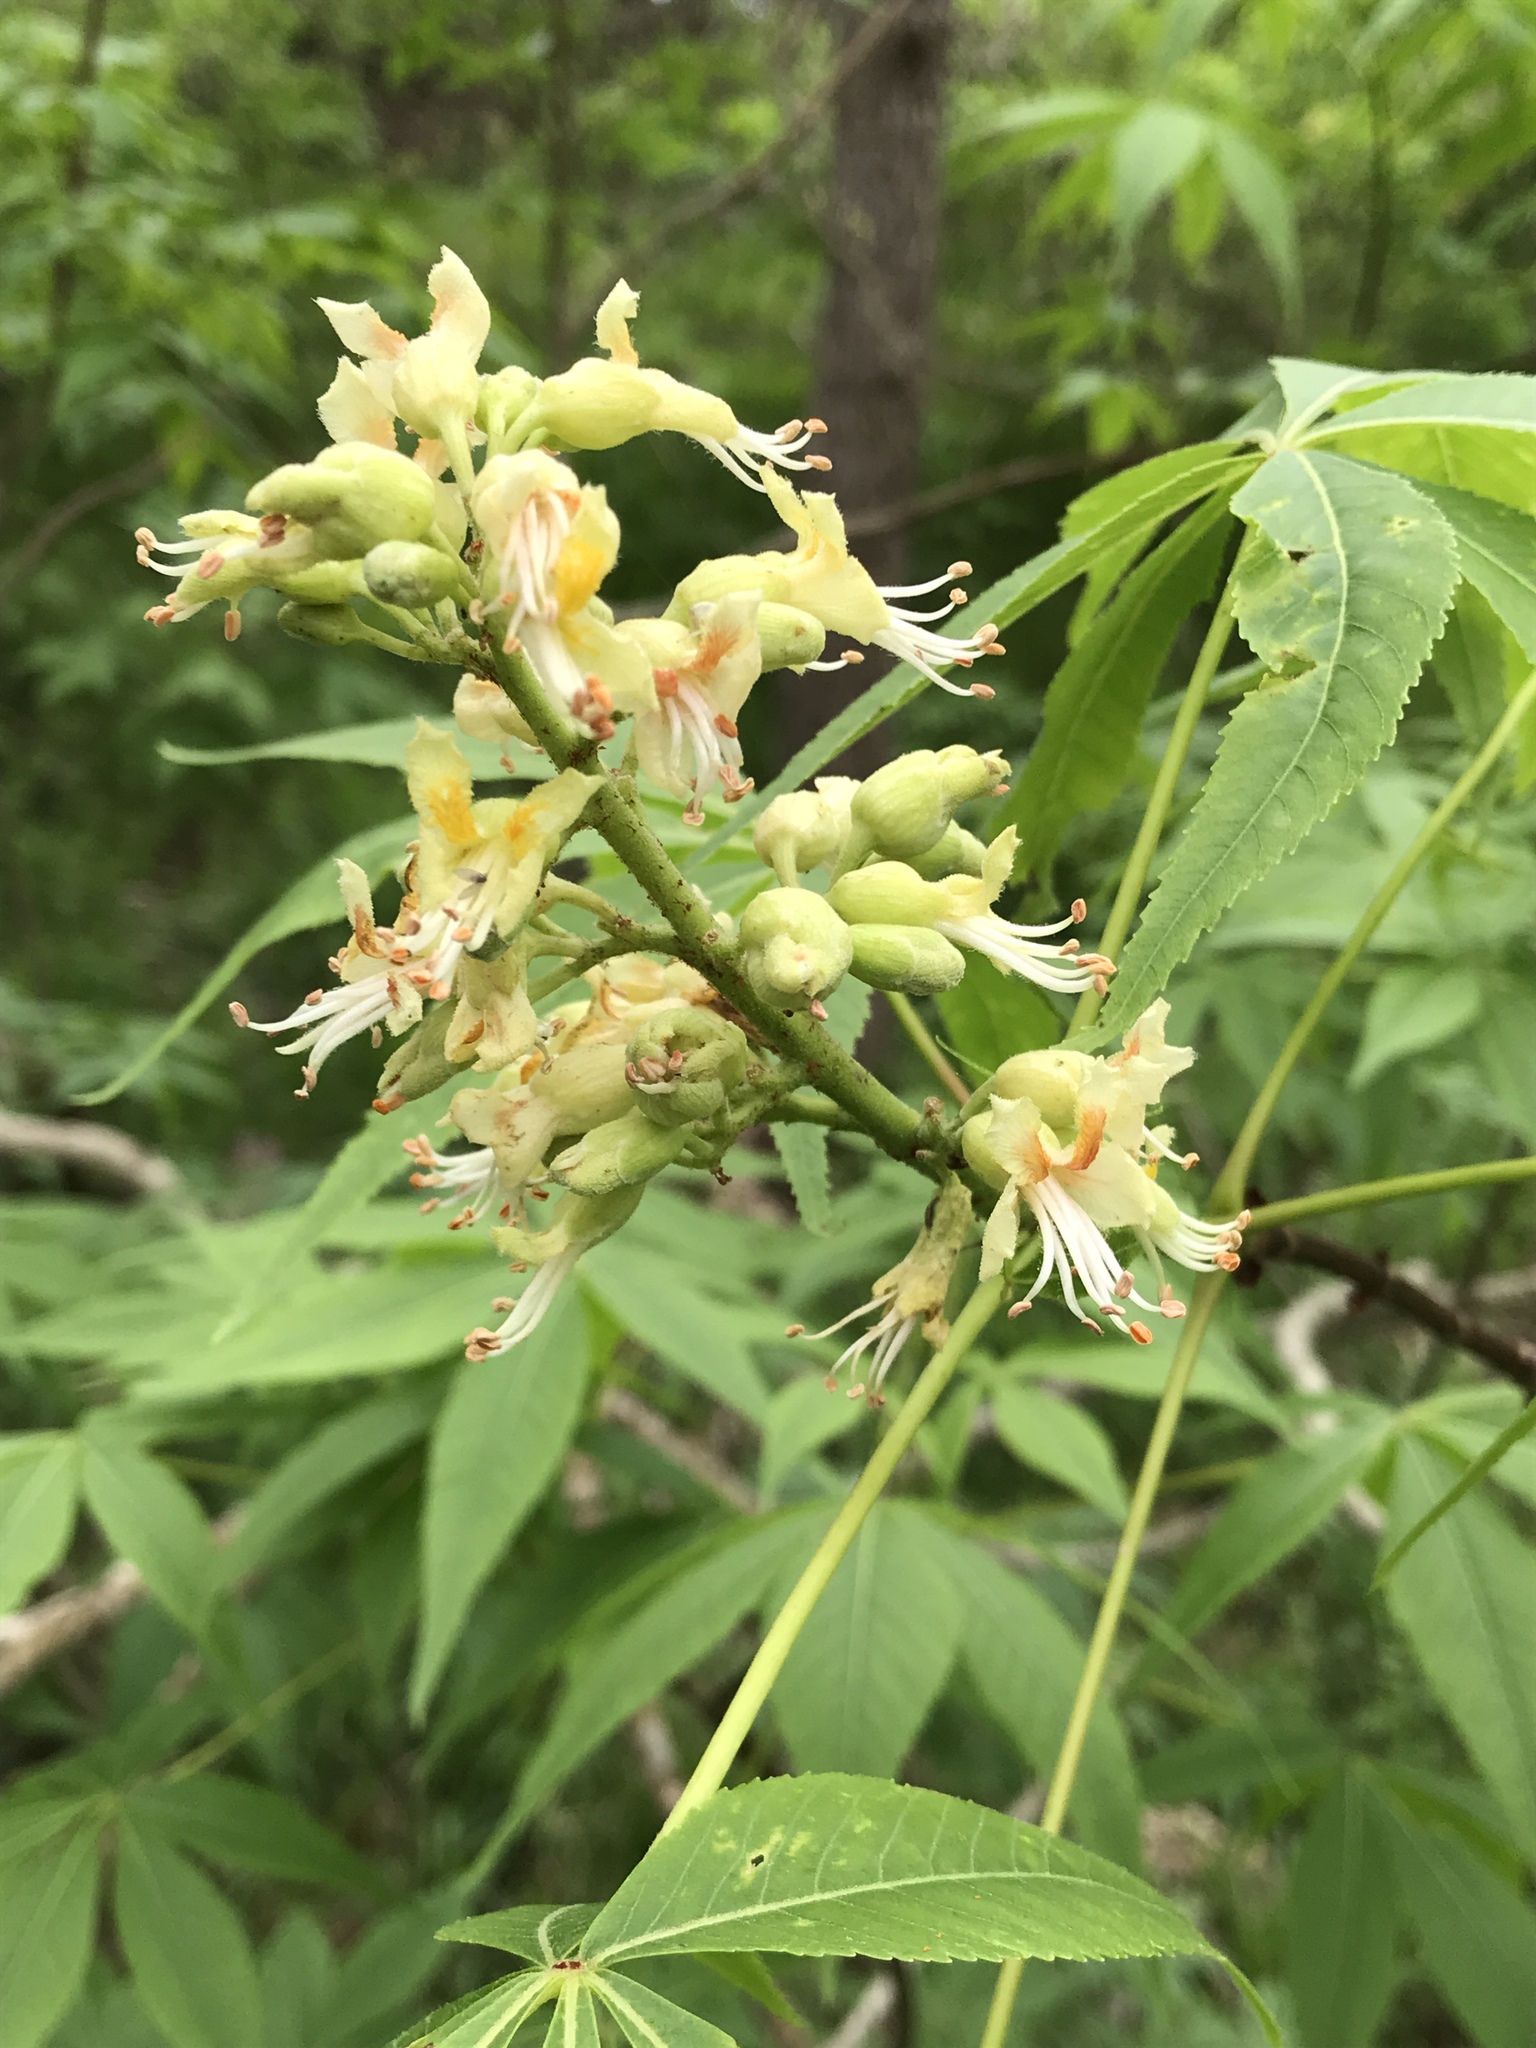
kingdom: Plantae
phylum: Tracheophyta
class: Magnoliopsida
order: Sapindales
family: Sapindaceae
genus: Aesculus
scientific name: Aesculus glabra
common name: Ohio buckeye
